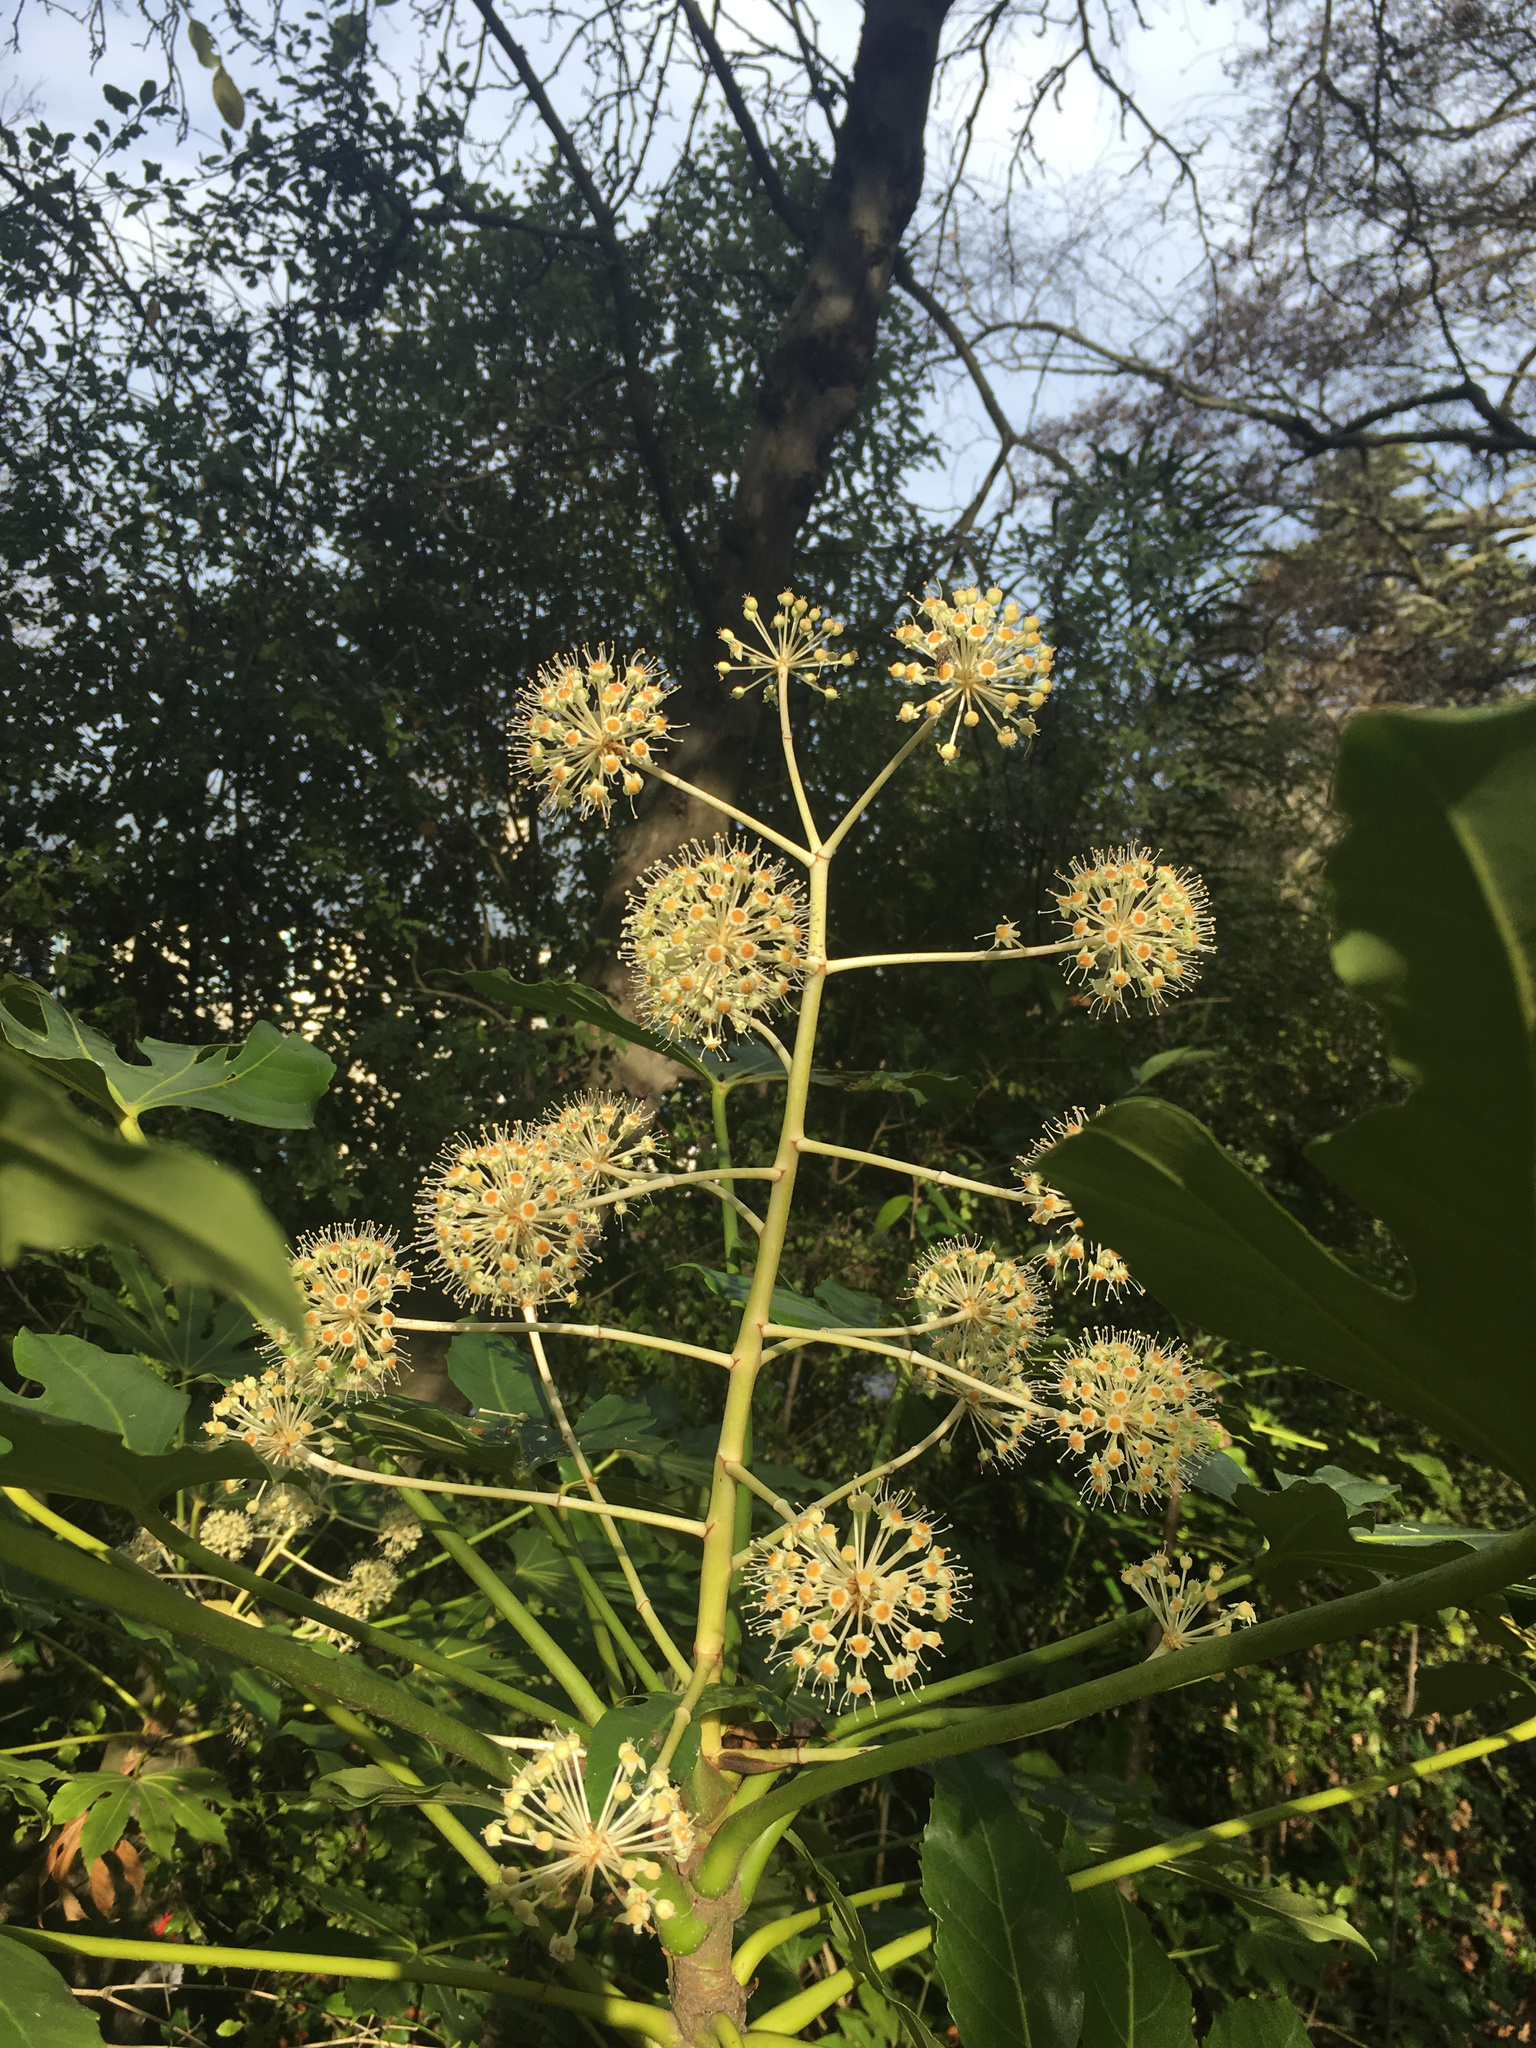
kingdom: Plantae
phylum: Tracheophyta
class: Magnoliopsida
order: Apiales
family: Araliaceae
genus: Fatsia
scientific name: Fatsia japonica
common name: Fatsia
